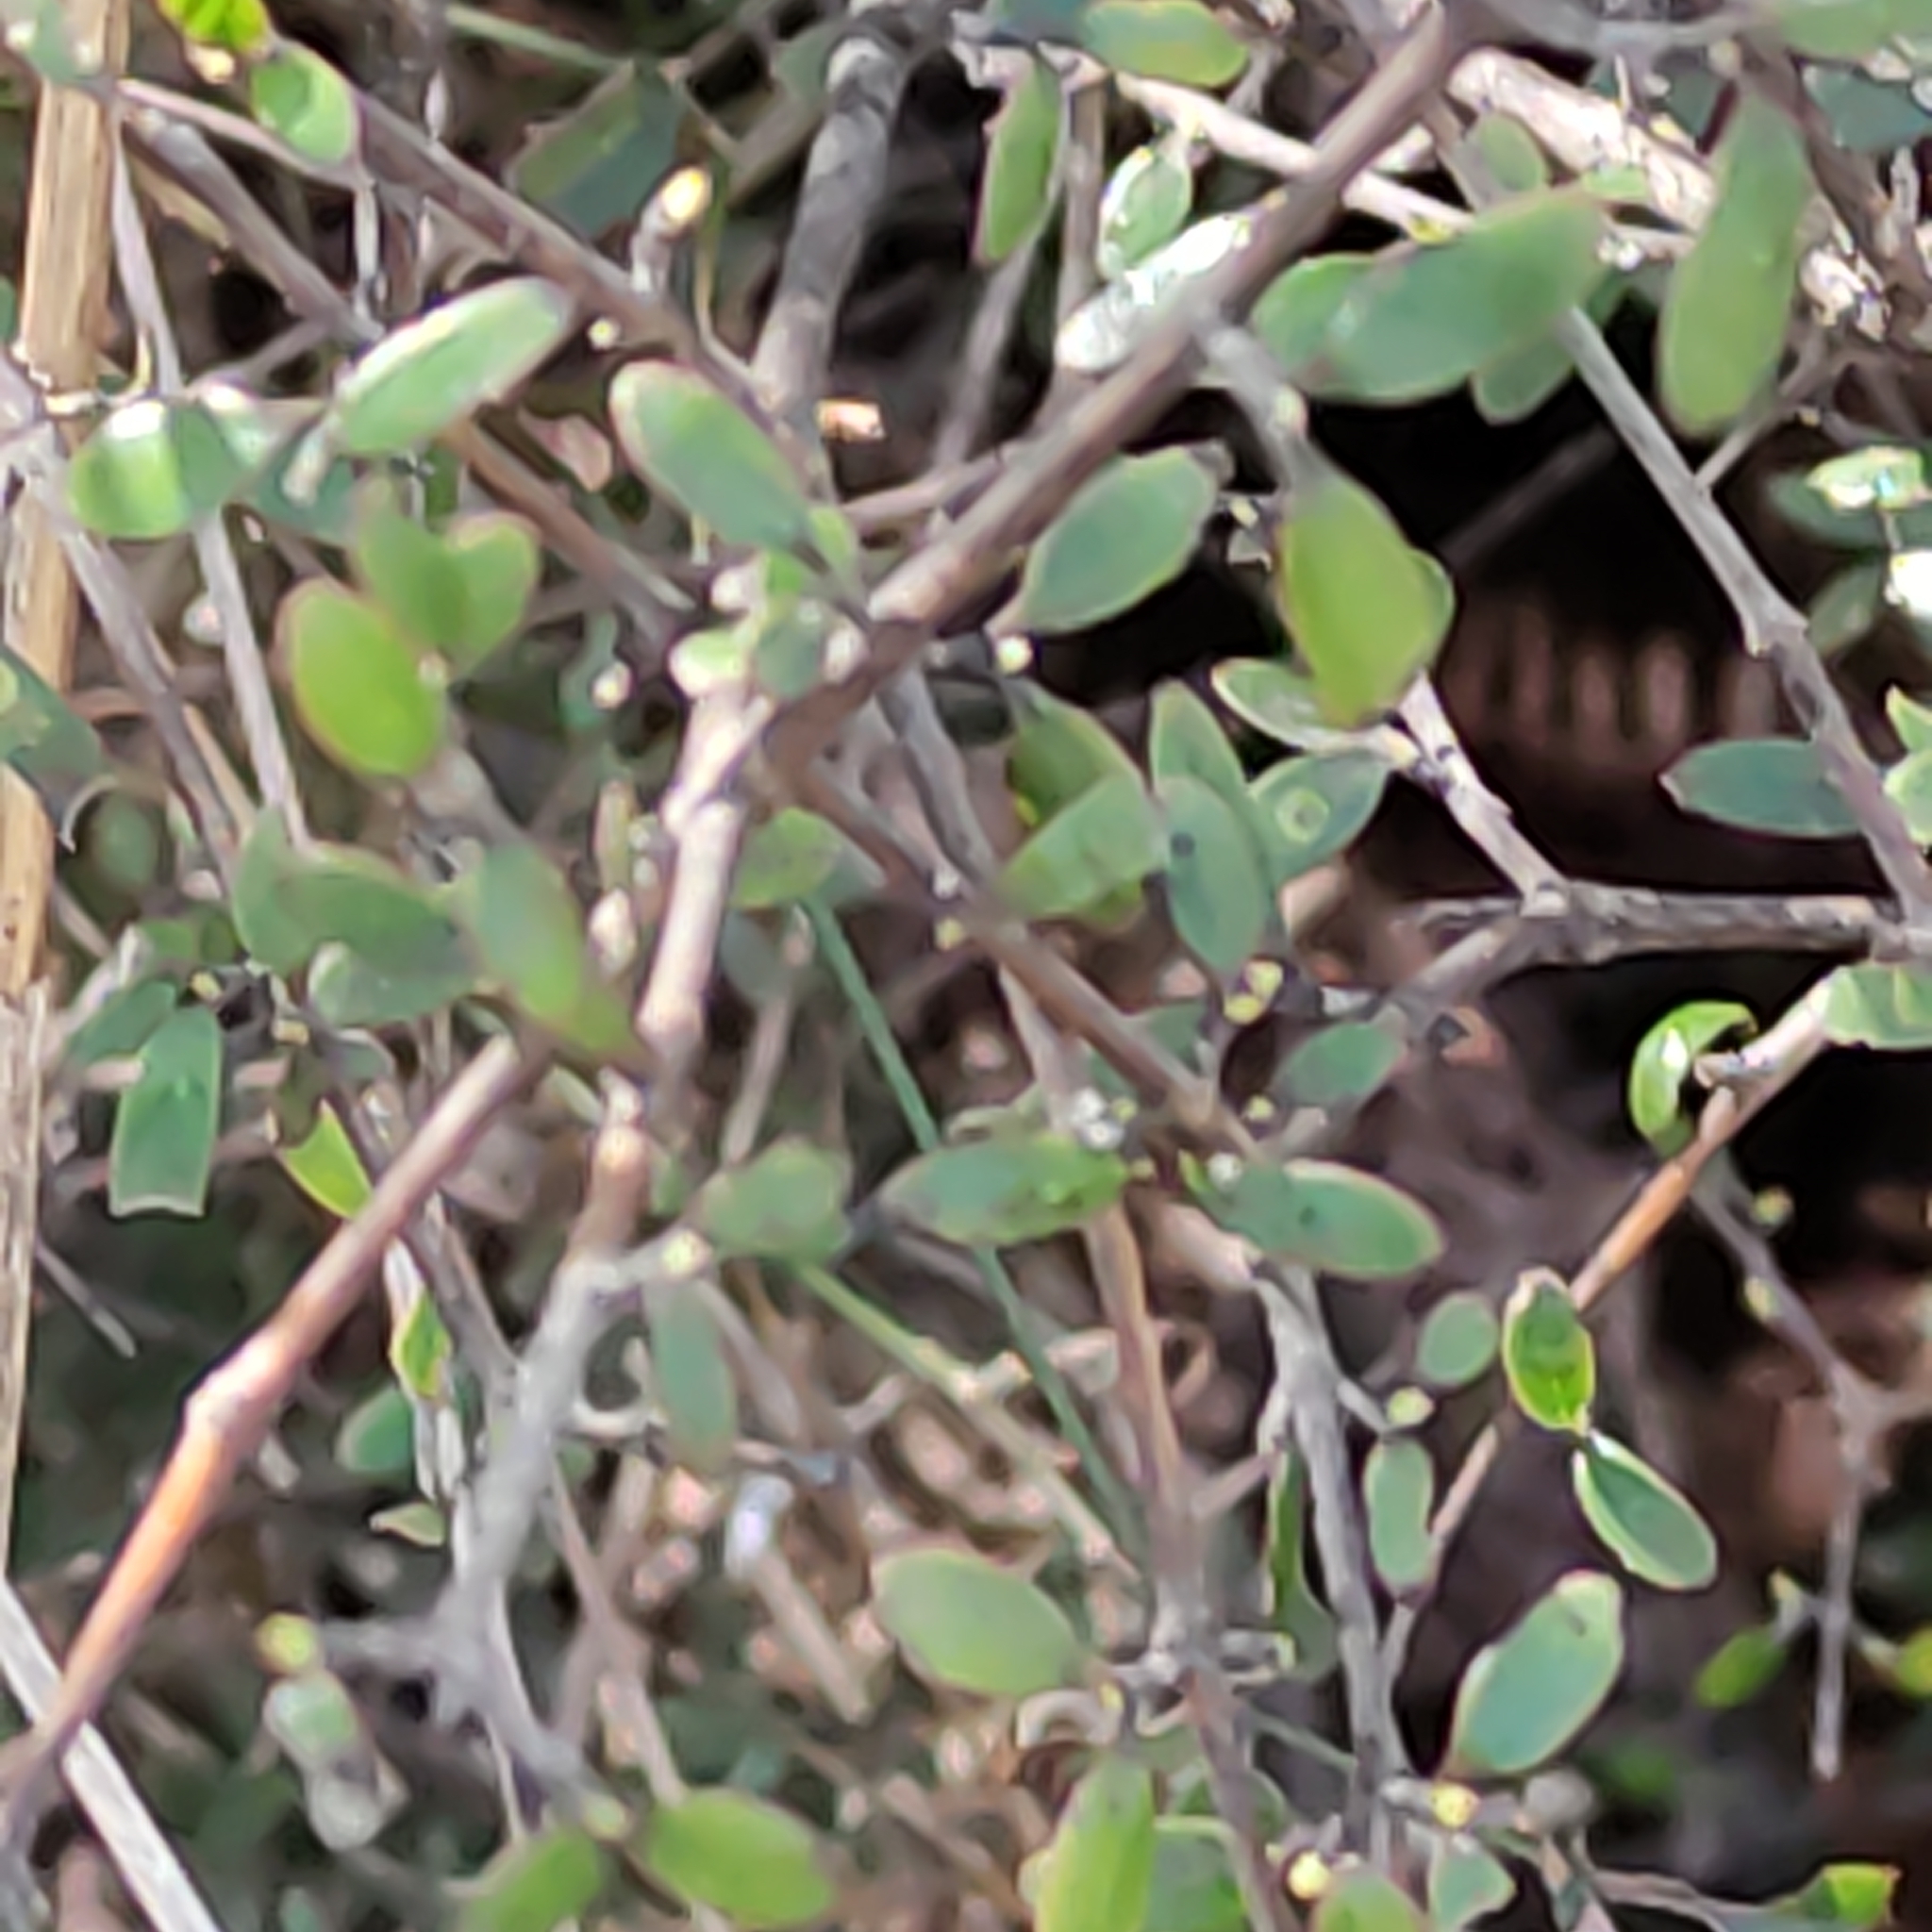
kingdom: Plantae
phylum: Tracheophyta
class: Magnoliopsida
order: Gentianales
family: Rubiaceae
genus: Coprosma
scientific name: Coprosma propinqua
